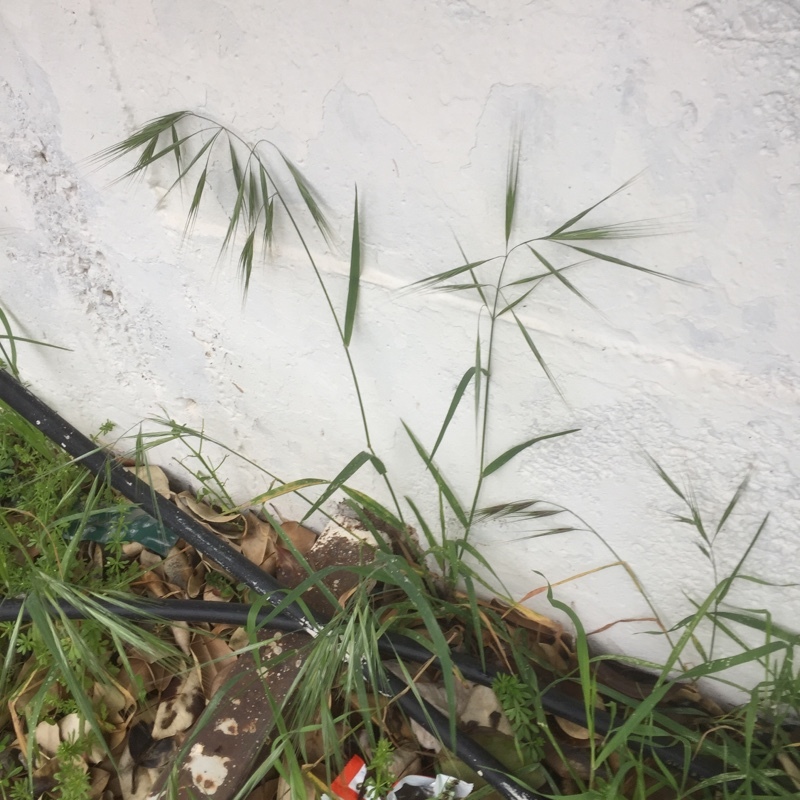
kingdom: Plantae
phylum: Tracheophyta
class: Liliopsida
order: Poales
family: Poaceae
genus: Bromus
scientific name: Bromus sterilis
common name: Poverty brome
